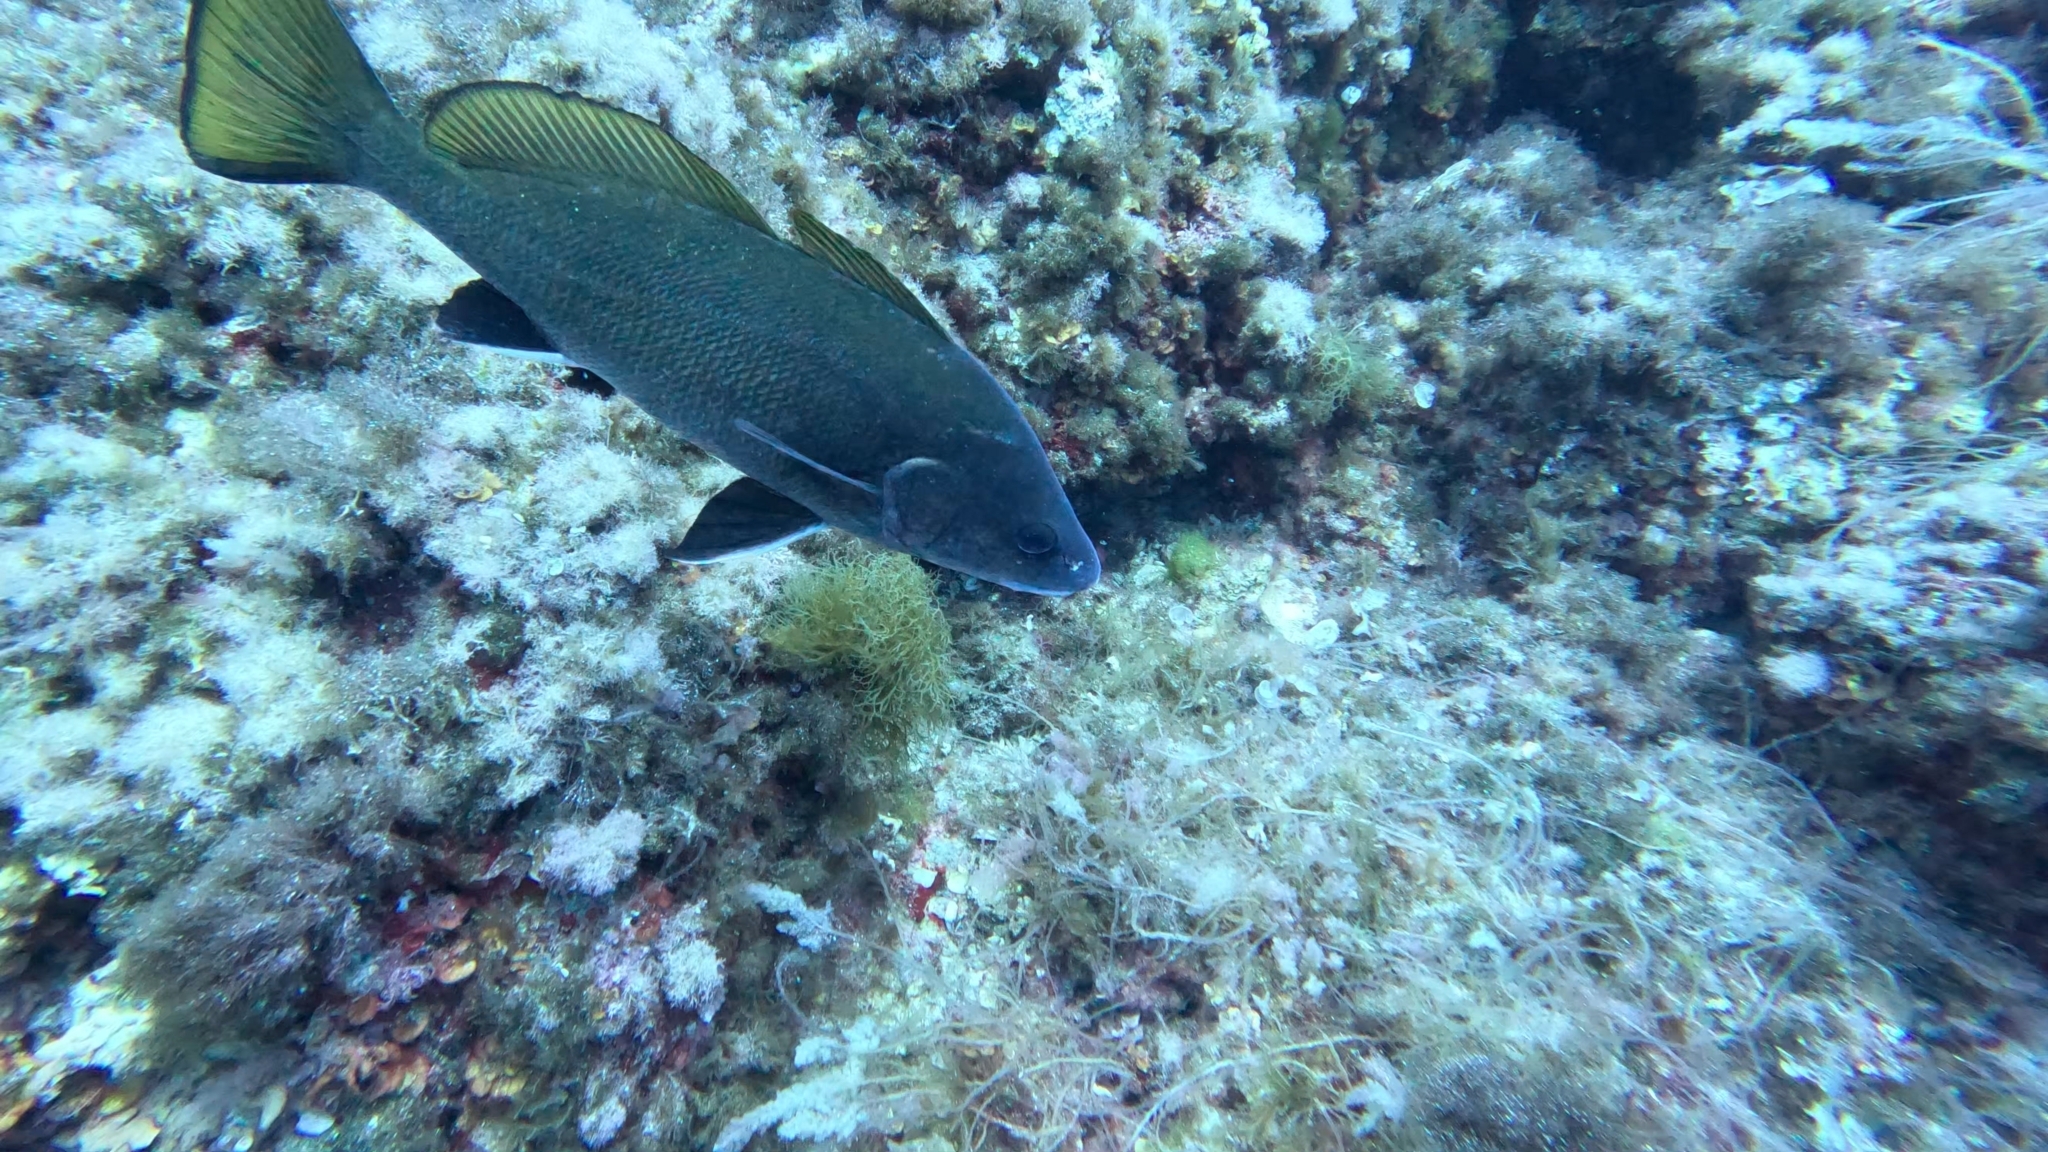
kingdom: Animalia
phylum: Chordata
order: Perciformes
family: Sciaenidae
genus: Sciaena
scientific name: Sciaena umbra
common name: Brown meagre
